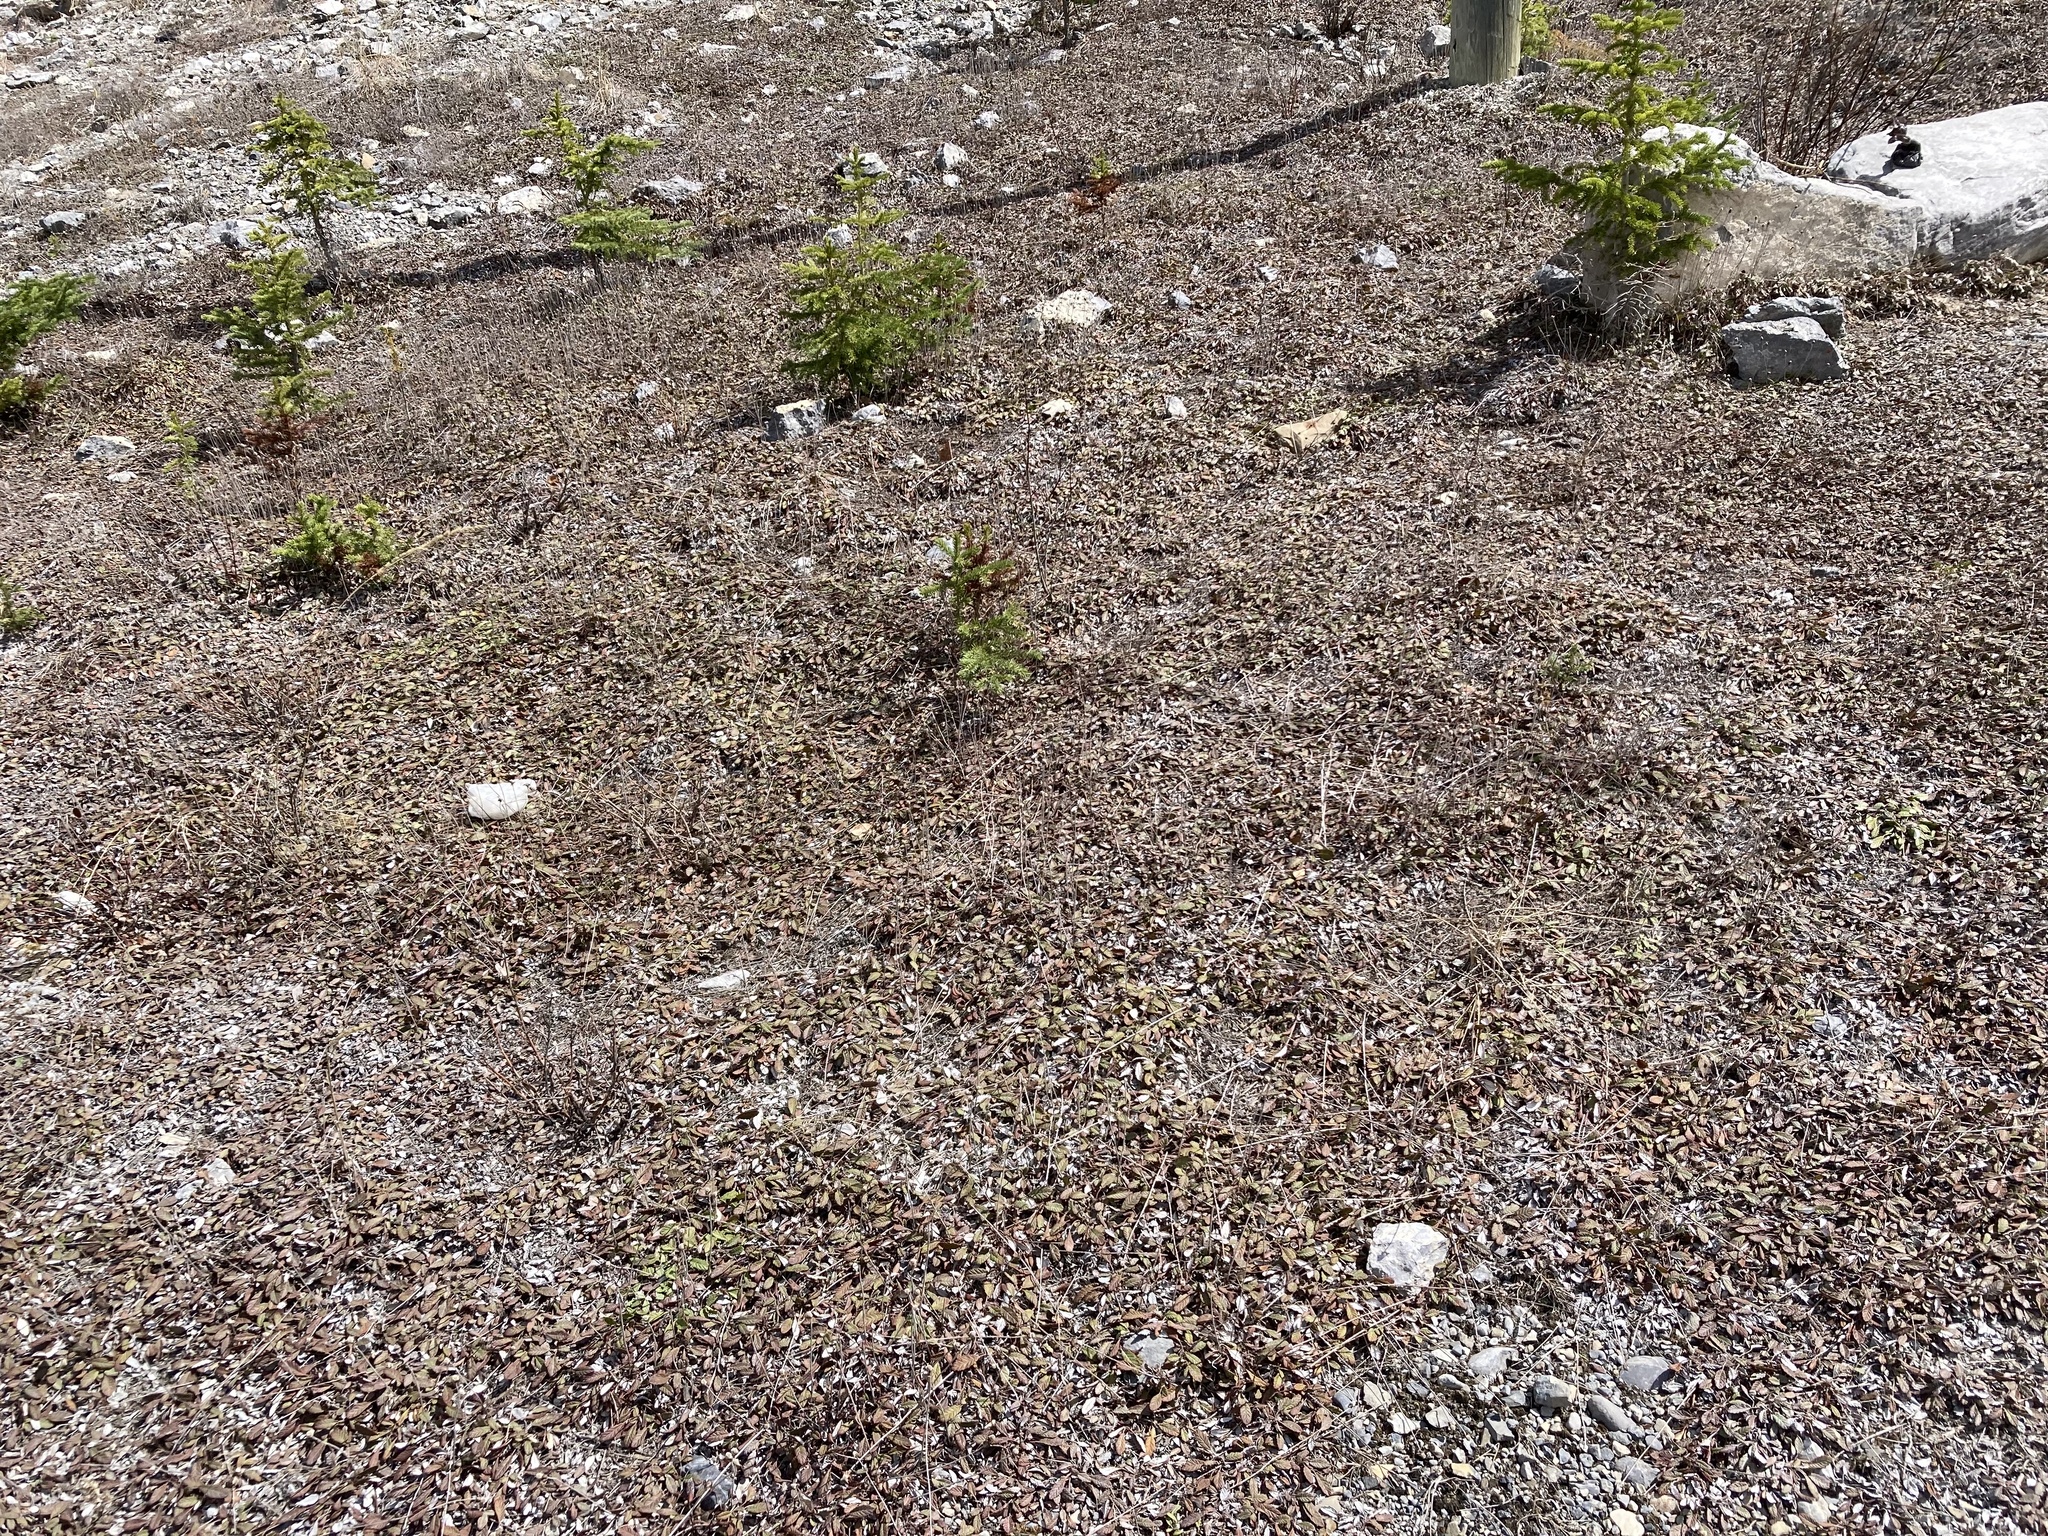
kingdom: Plantae
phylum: Tracheophyta
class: Magnoliopsida
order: Rosales
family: Rosaceae
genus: Dryas
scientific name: Dryas drummondii
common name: Drummond's dryad
